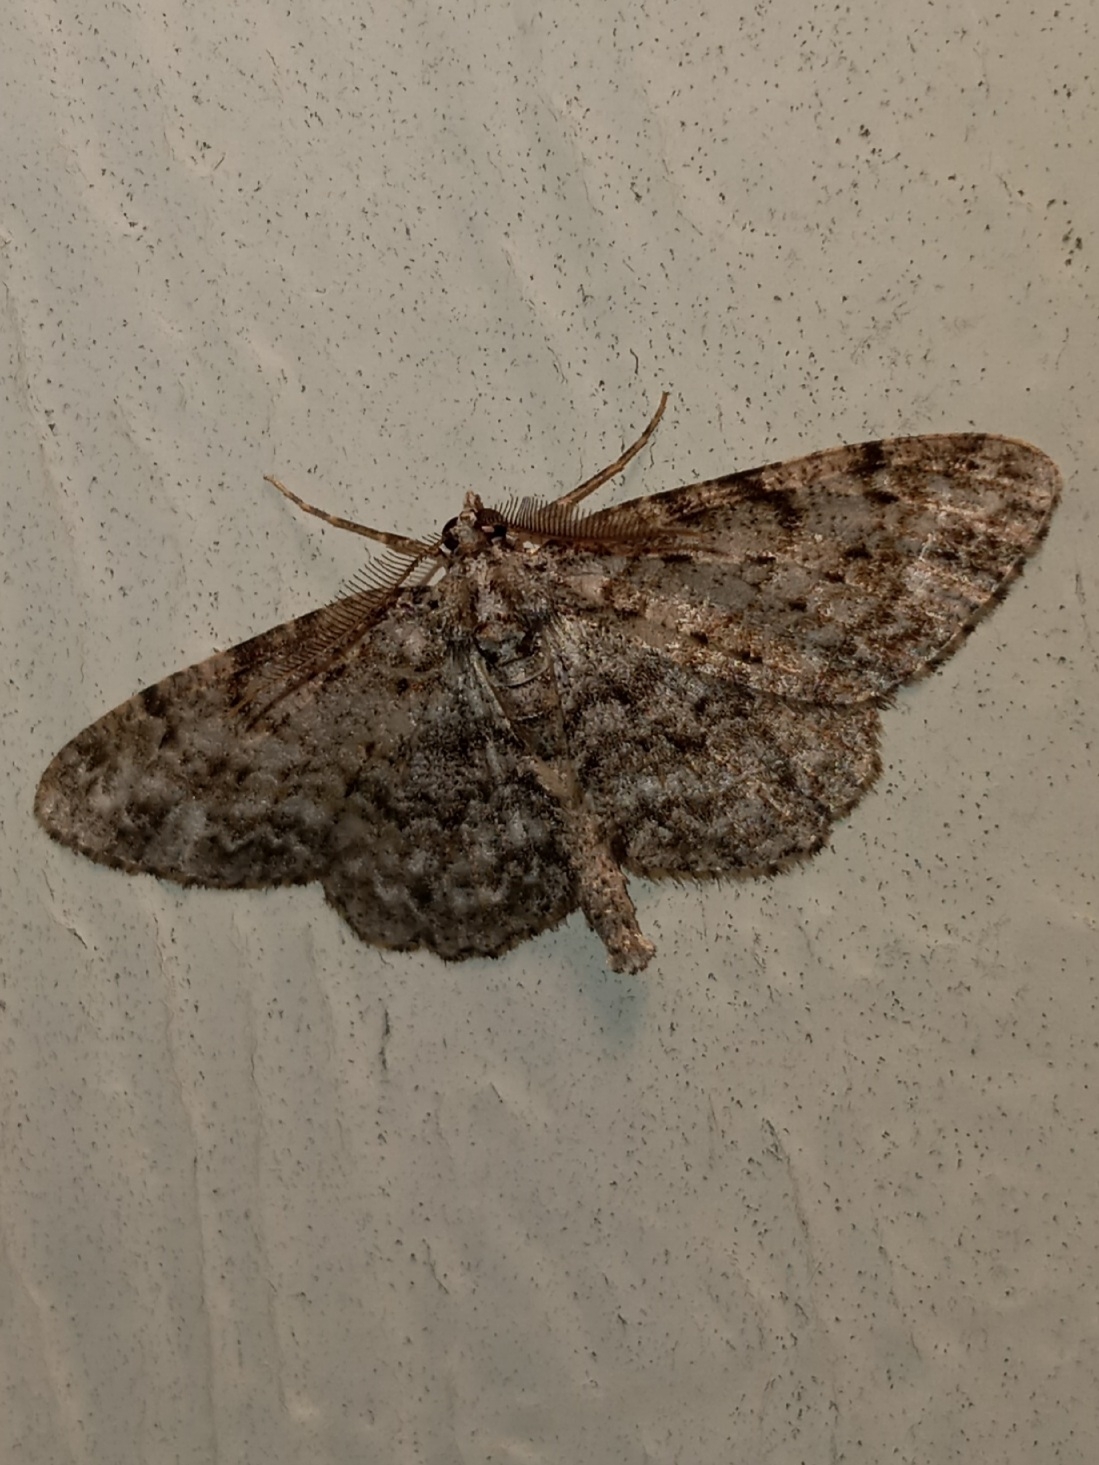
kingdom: Animalia
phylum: Arthropoda
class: Insecta
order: Lepidoptera
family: Geometridae
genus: Protoboarmia
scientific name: Protoboarmia porcelaria
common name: Porcelain gray
